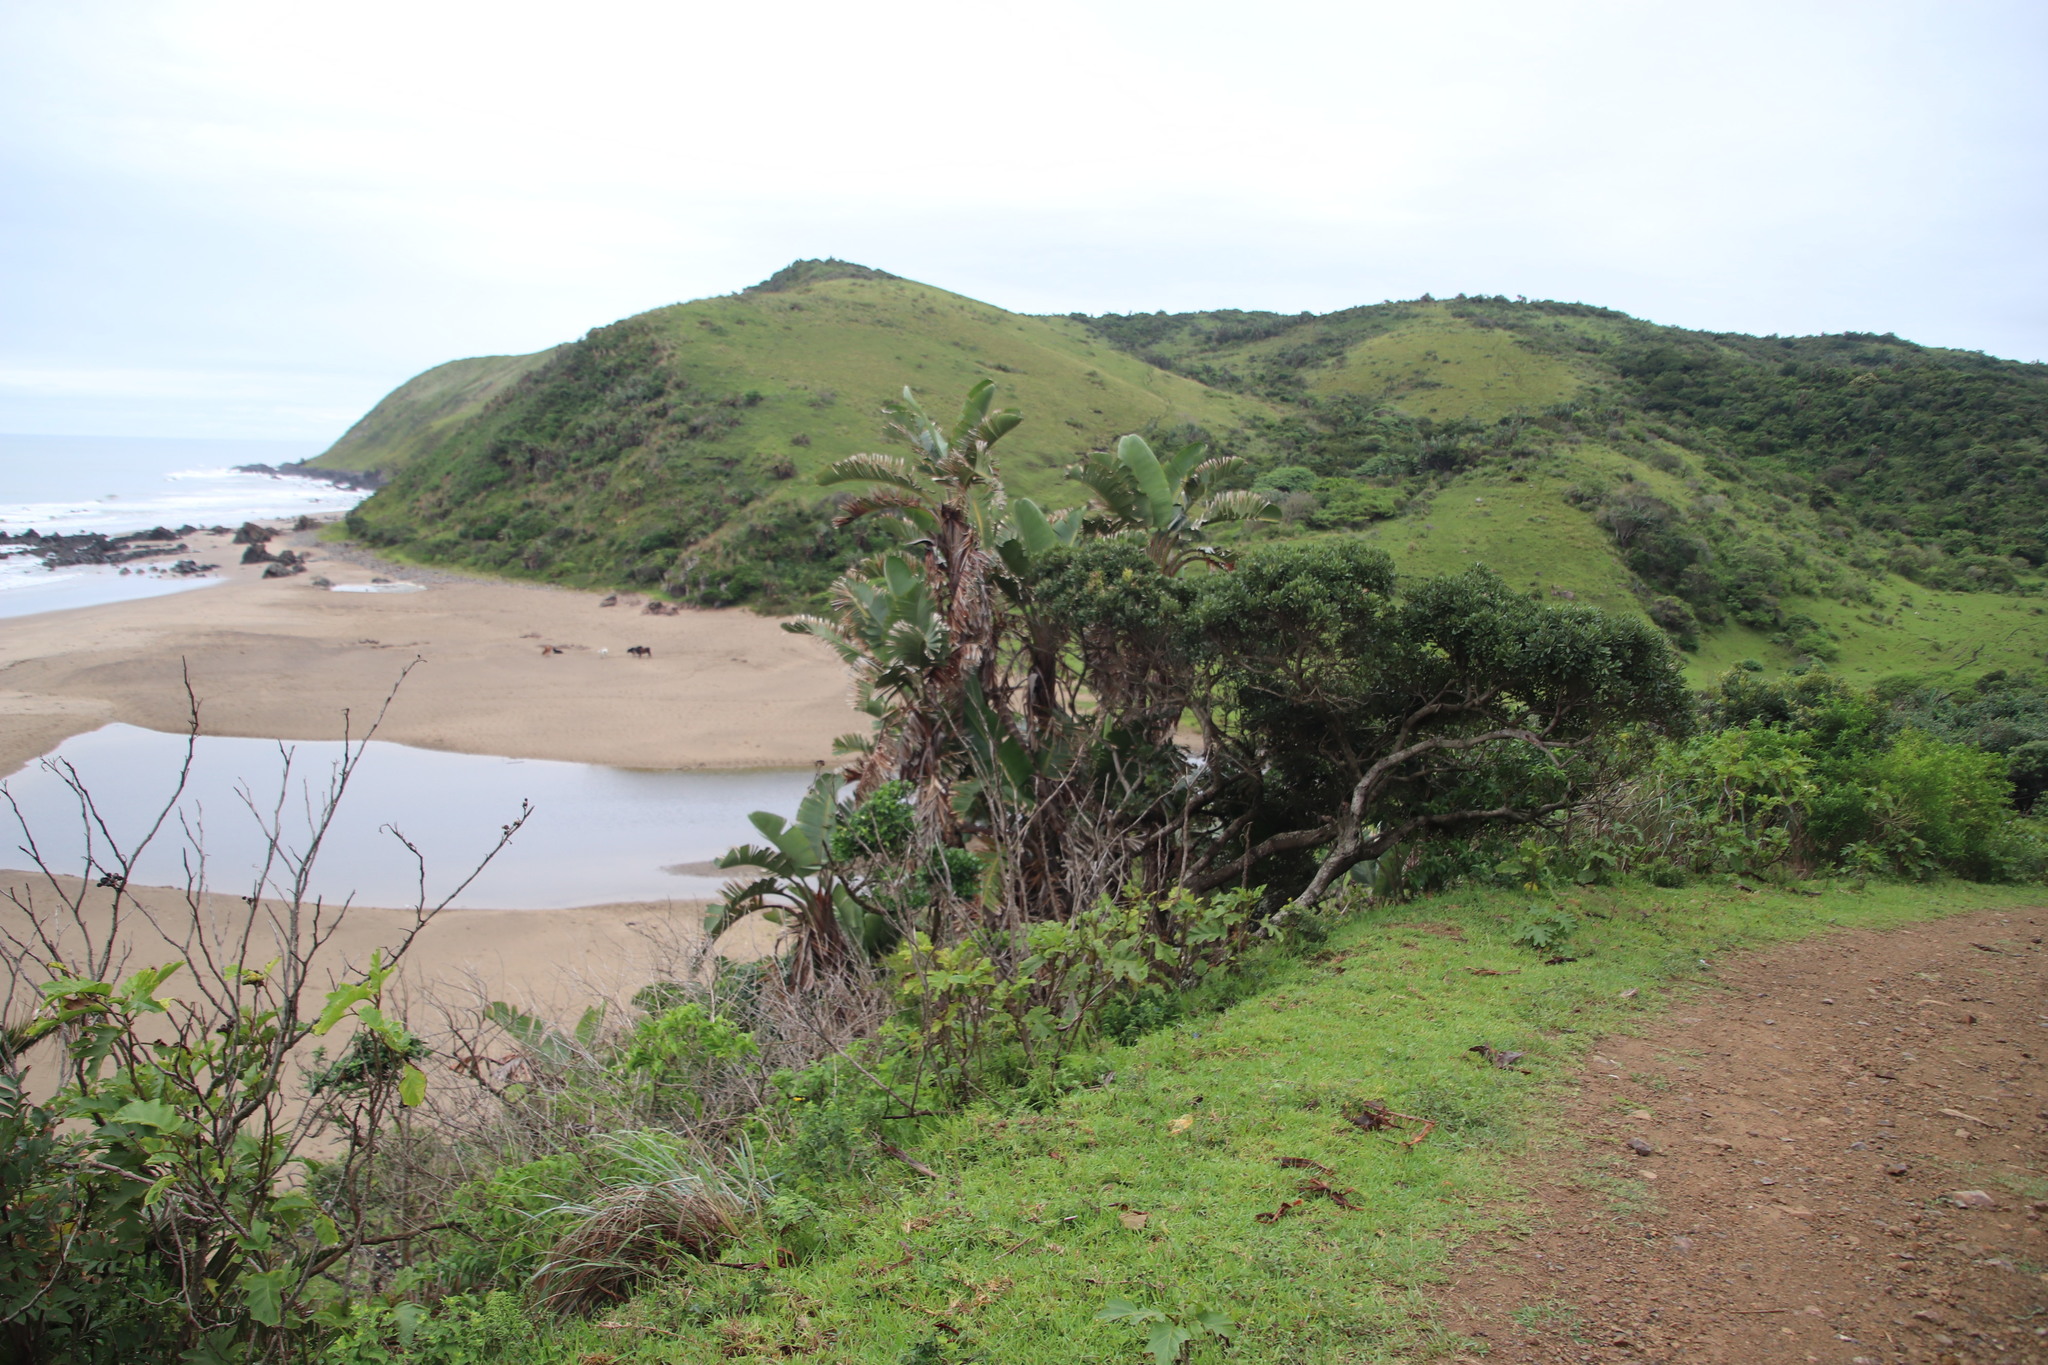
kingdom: Plantae
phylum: Tracheophyta
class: Liliopsida
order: Zingiberales
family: Strelitziaceae
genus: Strelitzia
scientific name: Strelitzia nicolai
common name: Bird-of-paradise tree
